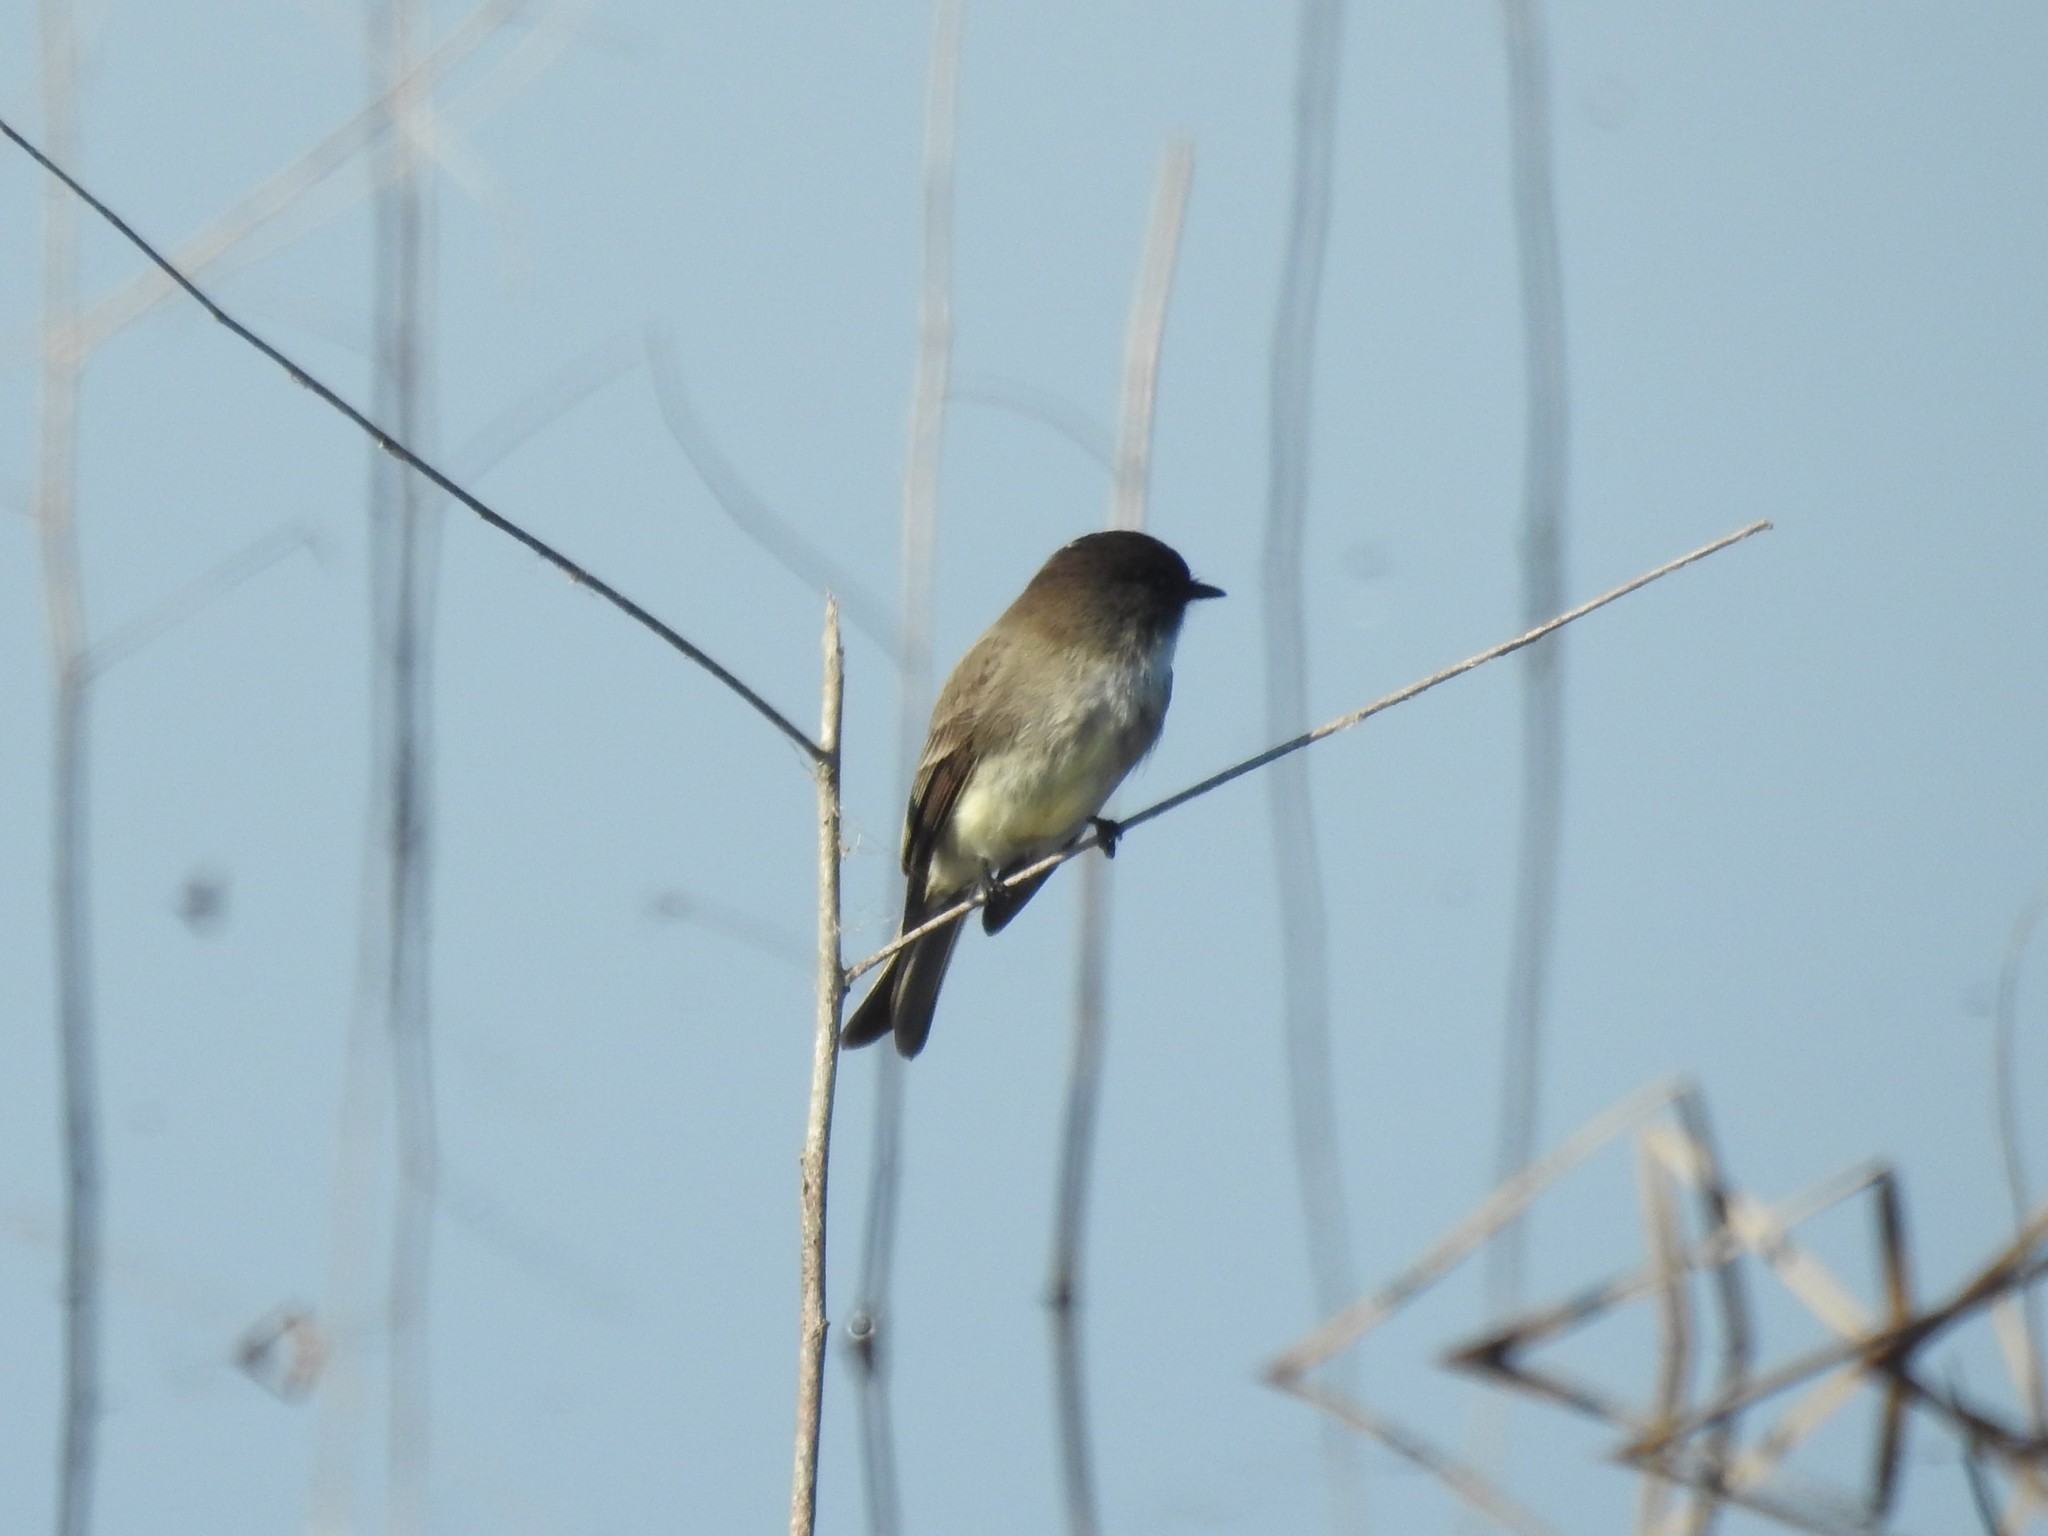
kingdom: Animalia
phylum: Chordata
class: Aves
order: Passeriformes
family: Tyrannidae
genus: Sayornis
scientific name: Sayornis phoebe
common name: Eastern phoebe
